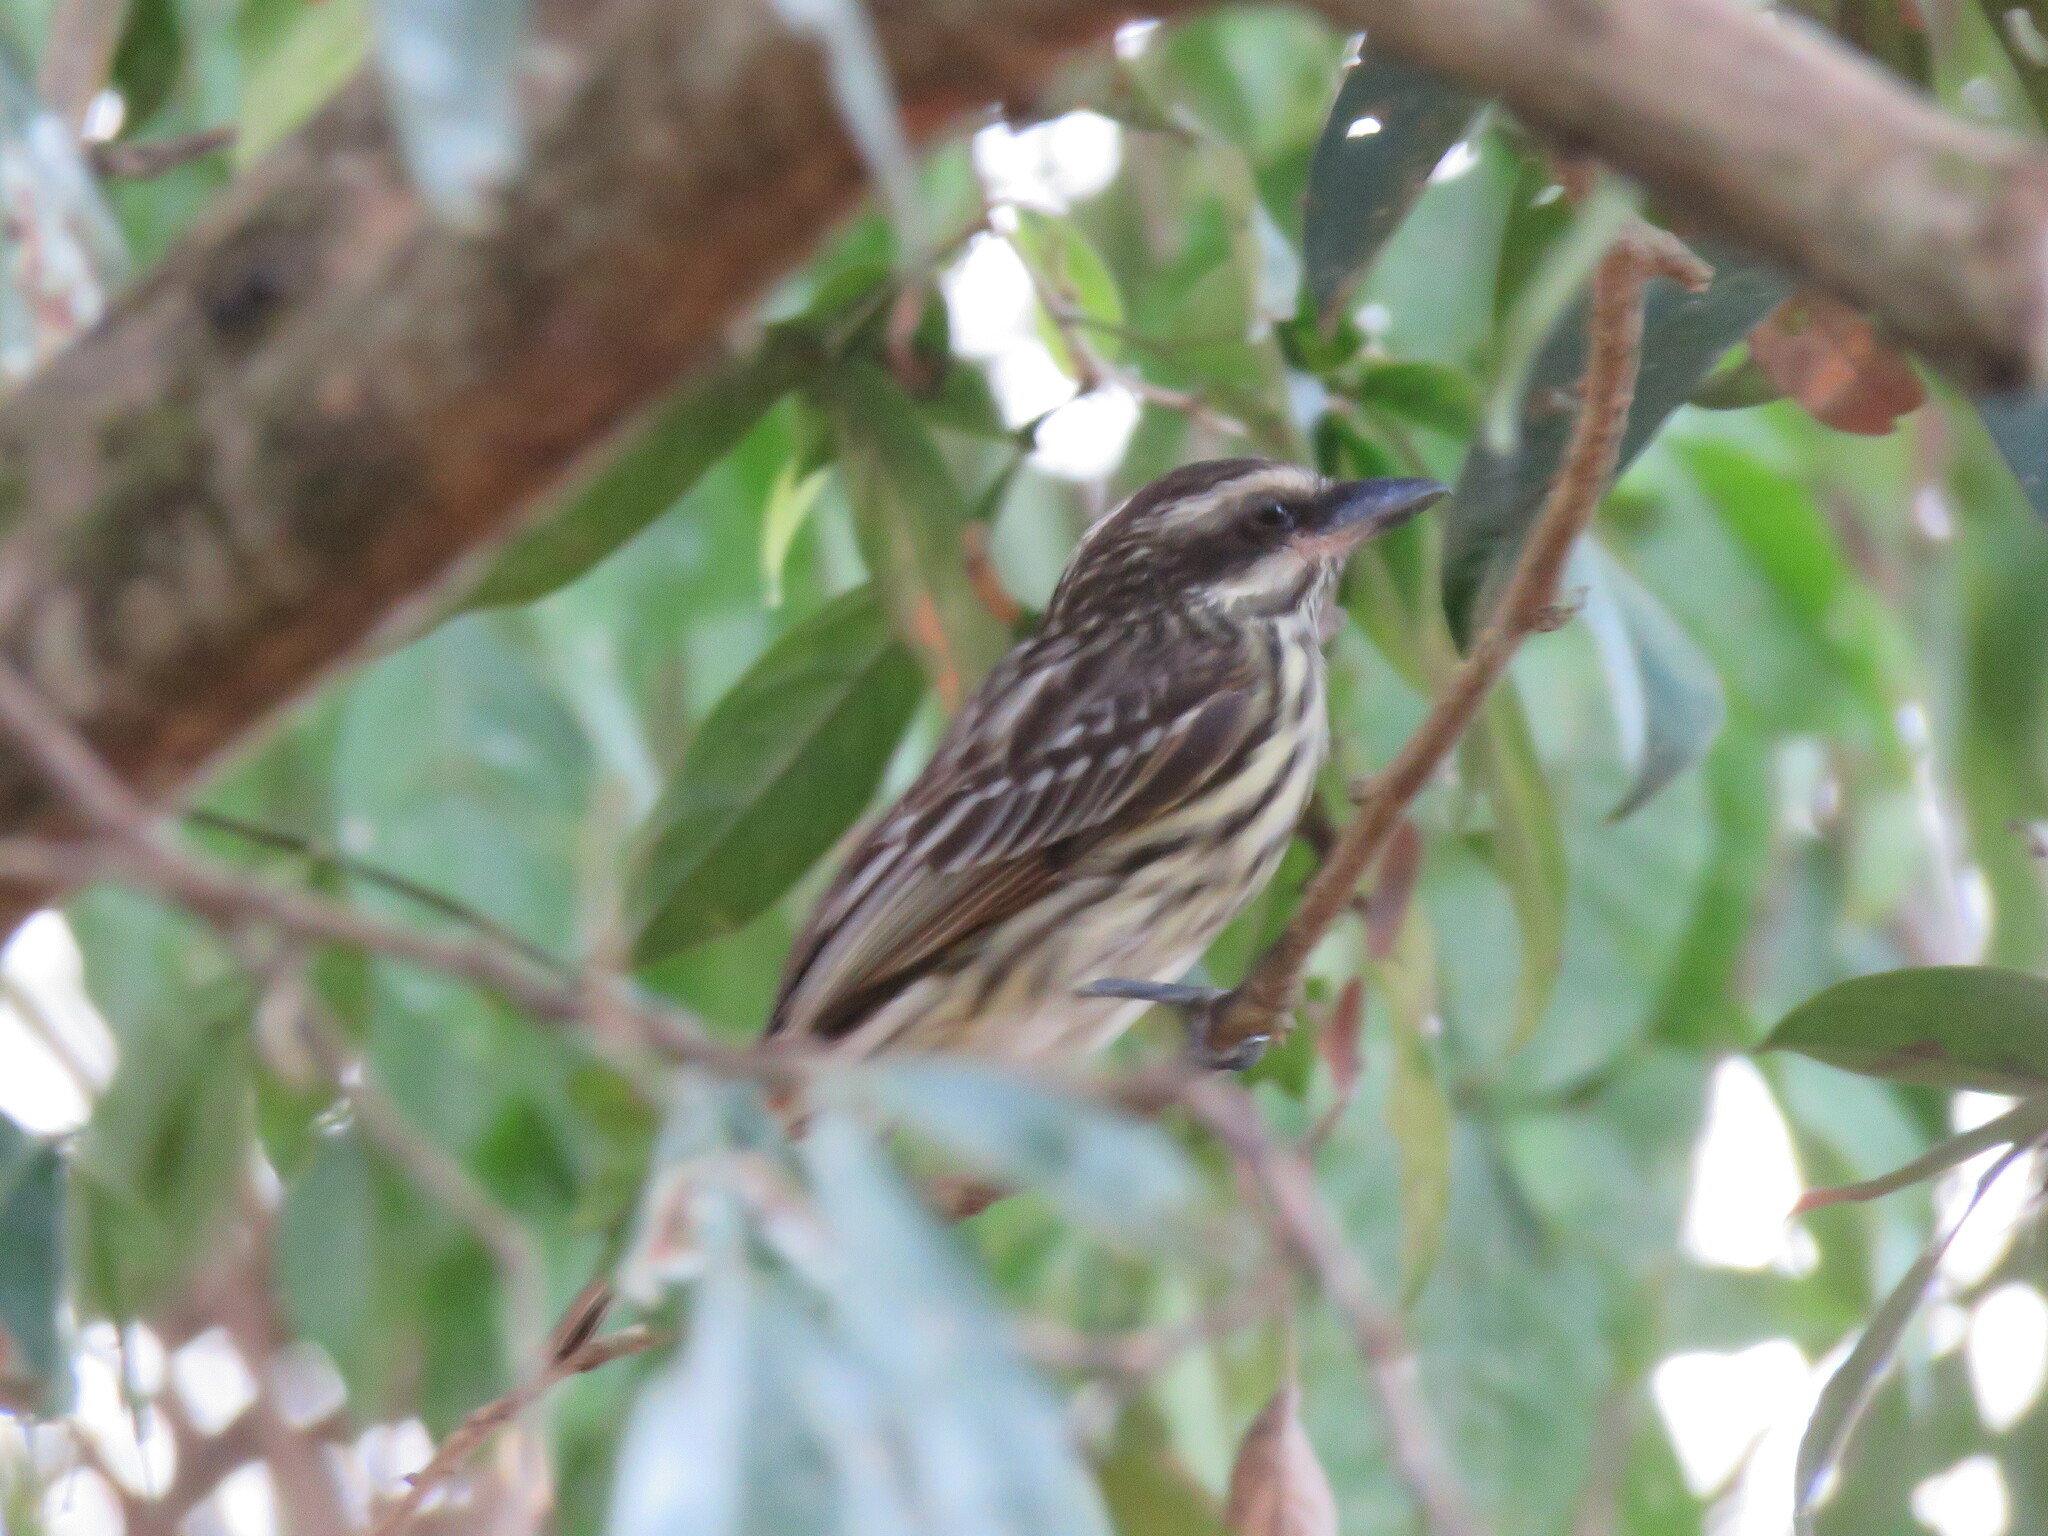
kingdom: Animalia
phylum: Chordata
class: Aves
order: Passeriformes
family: Tyrannidae
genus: Myiodynastes
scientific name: Myiodynastes maculatus
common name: Streaked flycatcher
